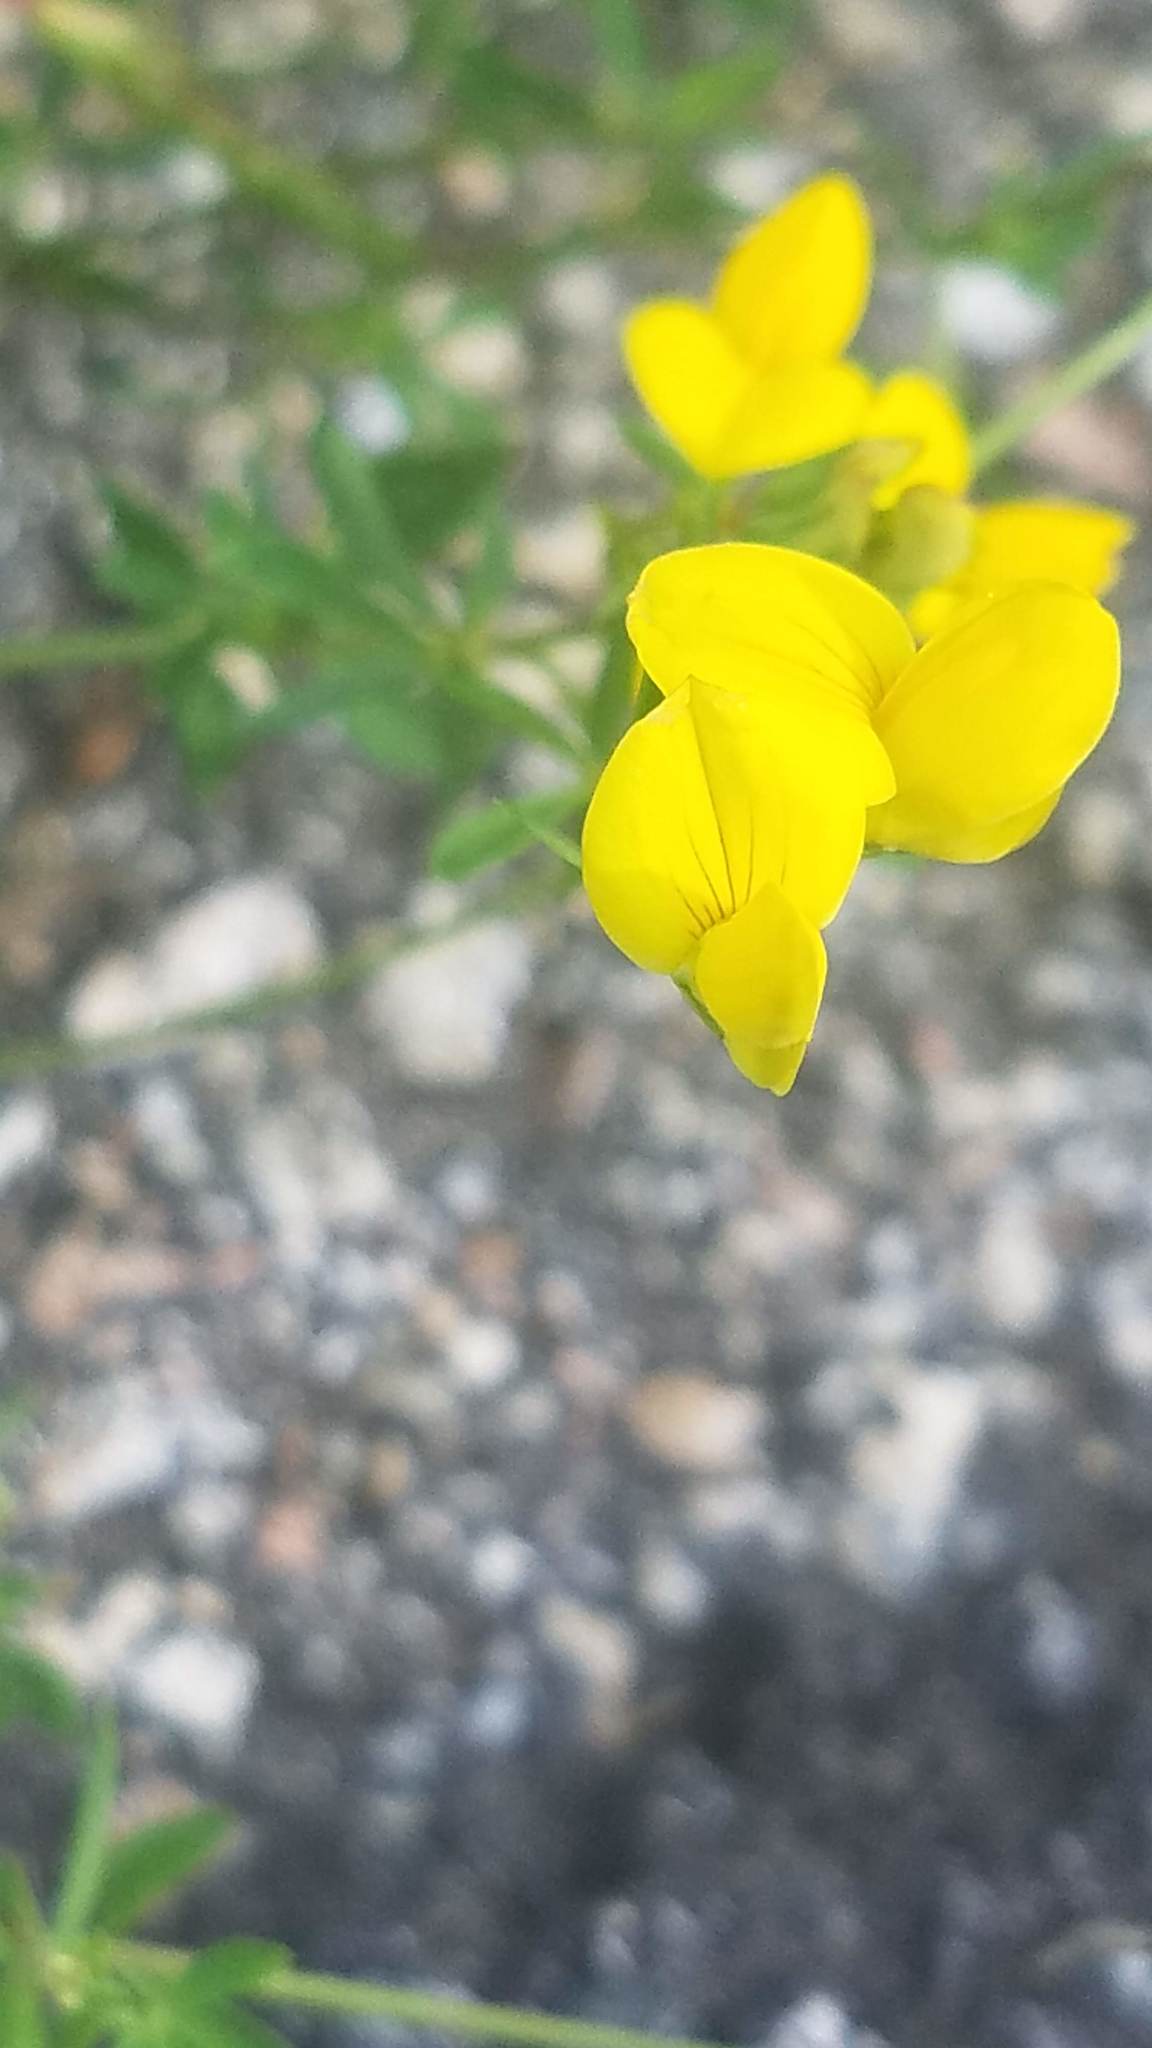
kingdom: Plantae
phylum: Tracheophyta
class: Magnoliopsida
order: Fabales
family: Fabaceae
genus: Lotus
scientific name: Lotus corniculatus
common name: Common bird's-foot-trefoil
